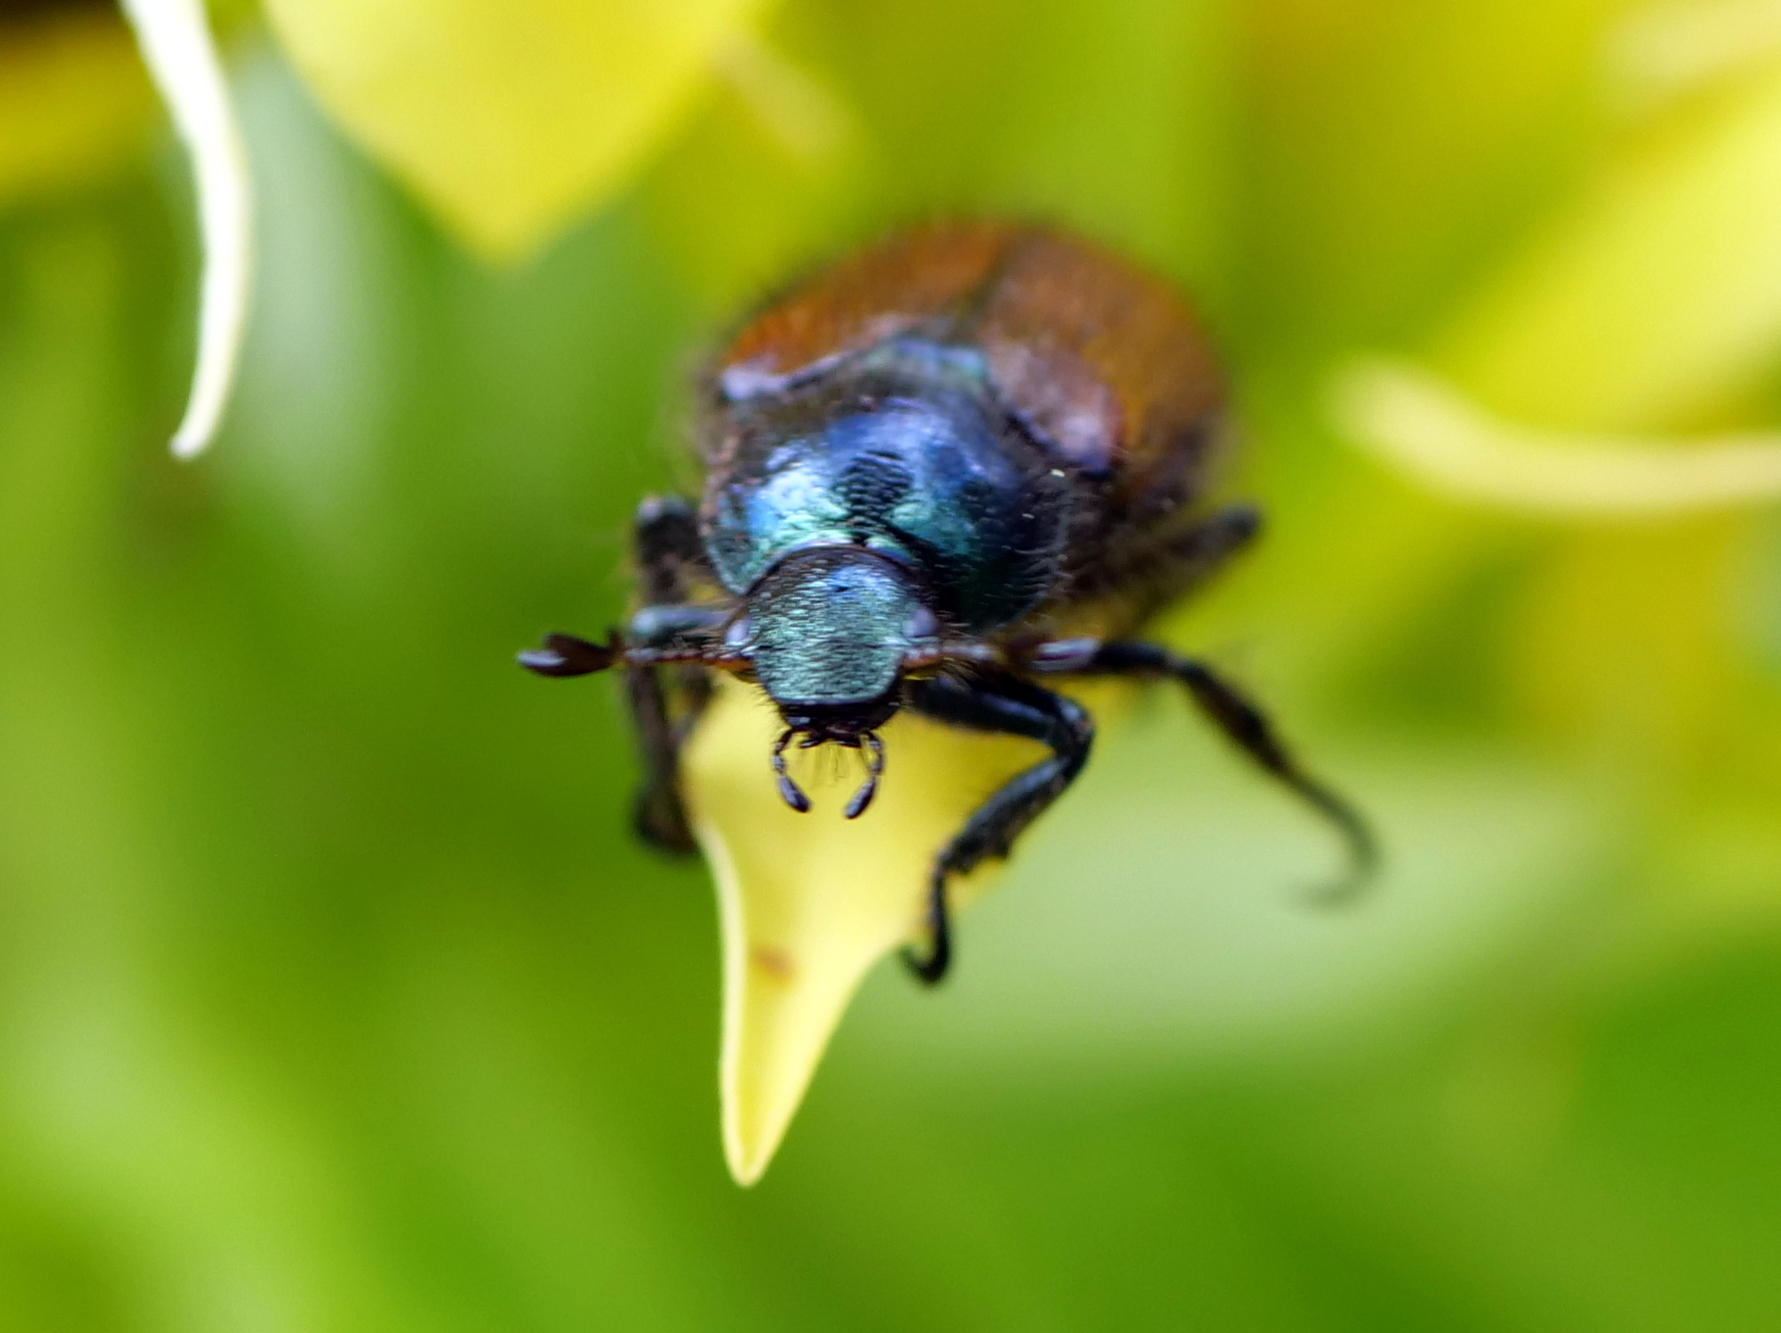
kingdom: Animalia
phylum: Arthropoda
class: Insecta
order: Coleoptera
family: Scarabaeidae
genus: Phyllopertha
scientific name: Phyllopertha horticola
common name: Garden chafer
